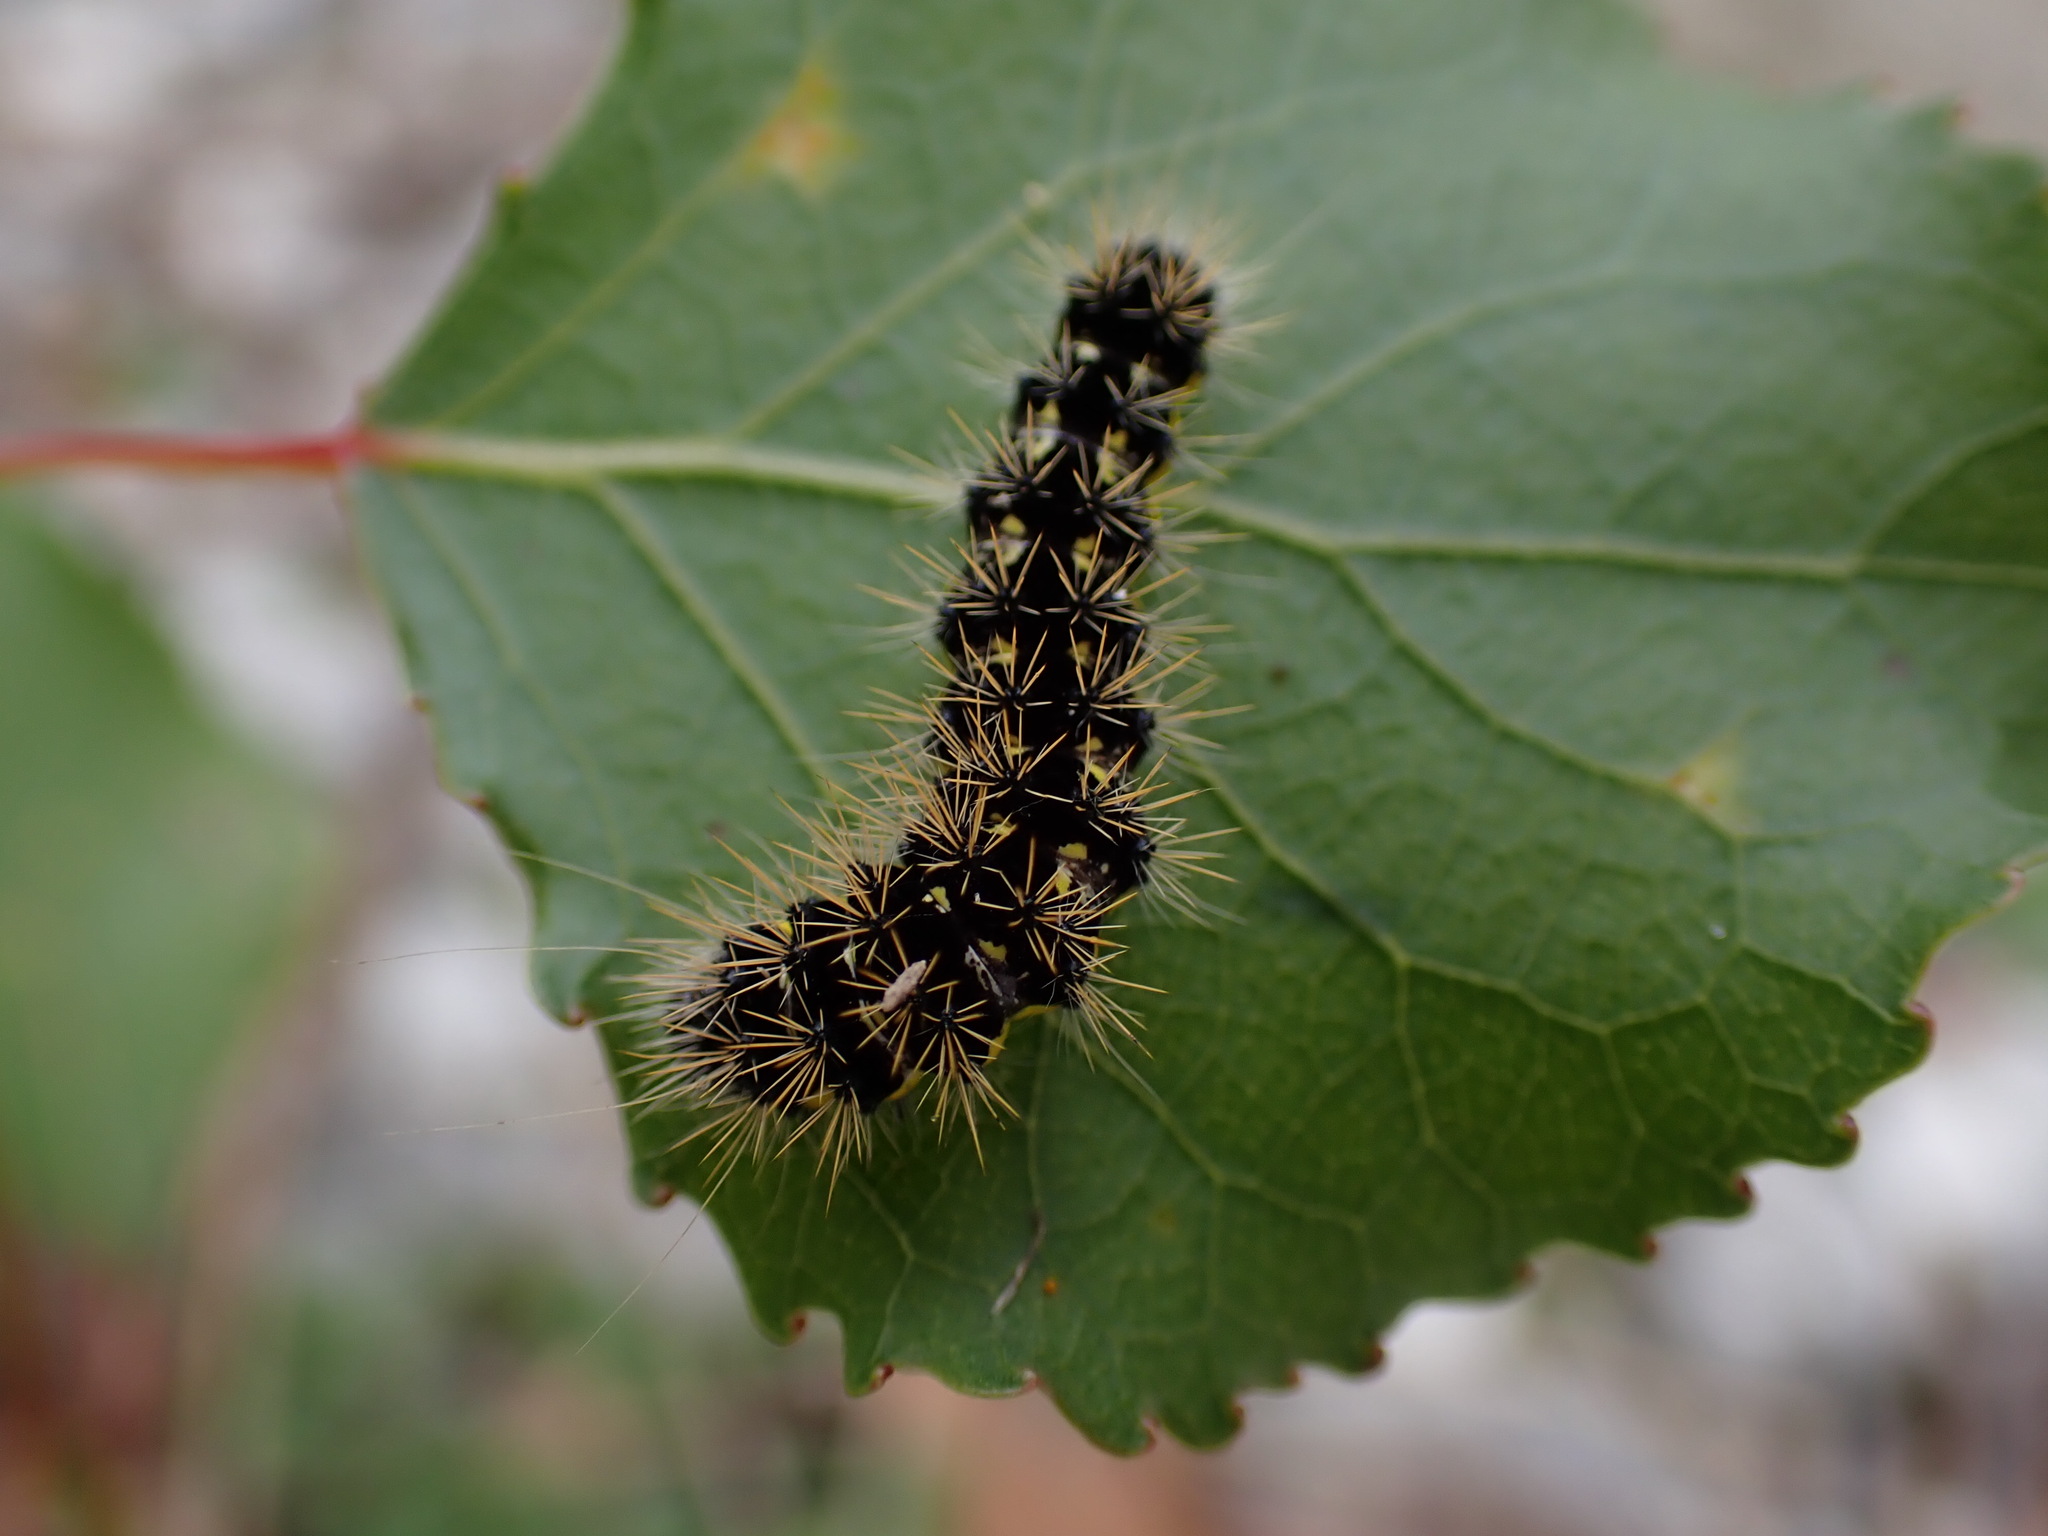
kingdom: Animalia
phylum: Arthropoda
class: Insecta
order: Lepidoptera
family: Noctuidae
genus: Acronicta
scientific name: Acronicta oblinita
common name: Smeared dagger
